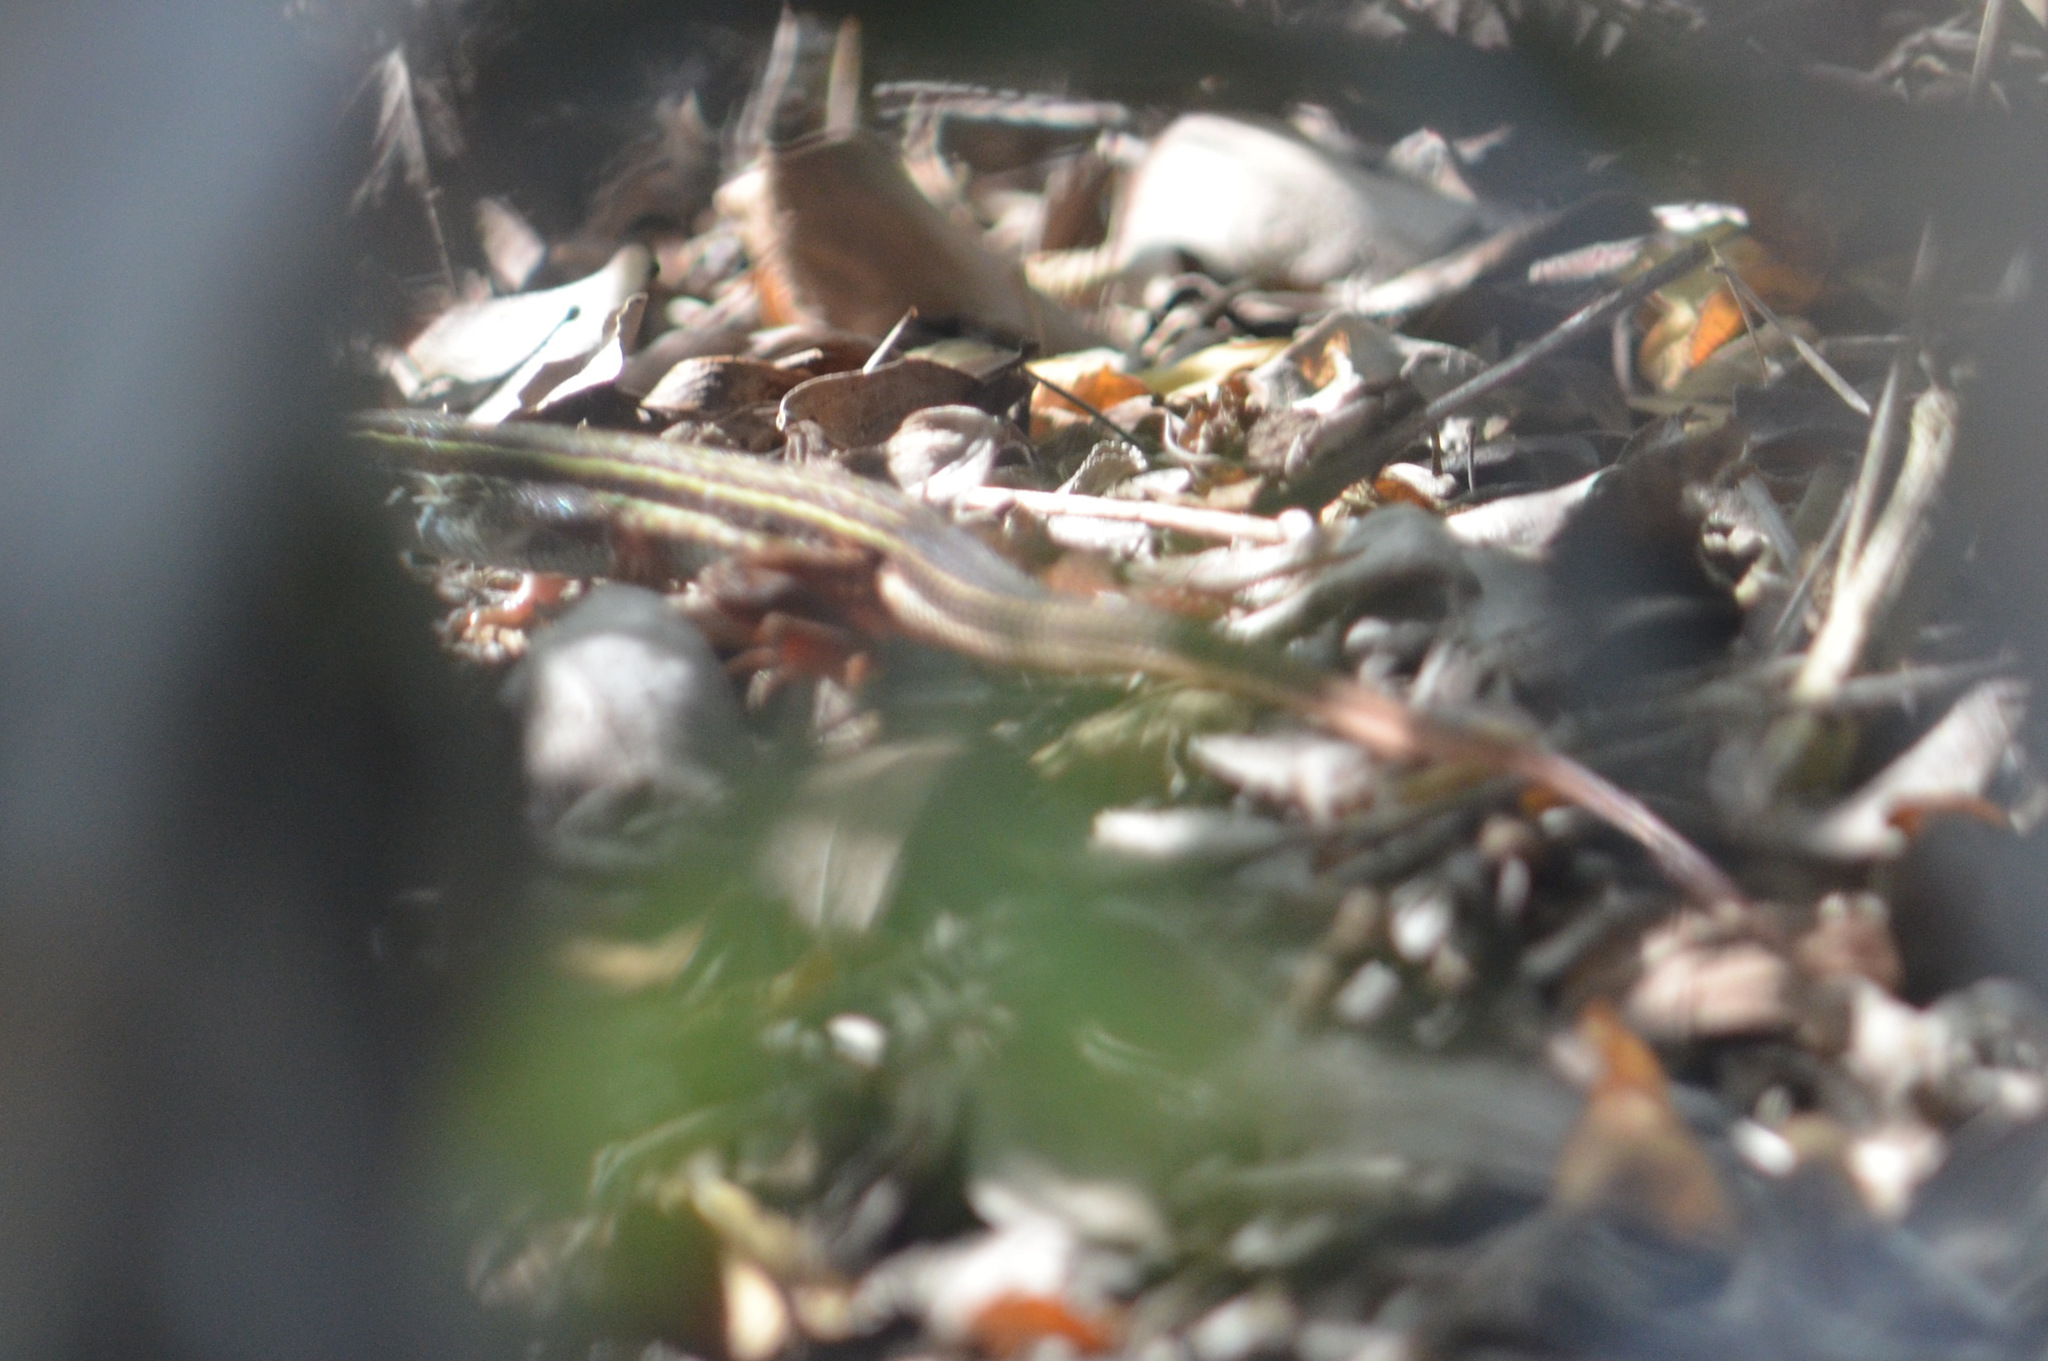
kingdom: Animalia
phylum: Chordata
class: Squamata
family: Teiidae
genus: Aspidoscelis
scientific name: Aspidoscelis angusticeps
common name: Yucatan whiptail
